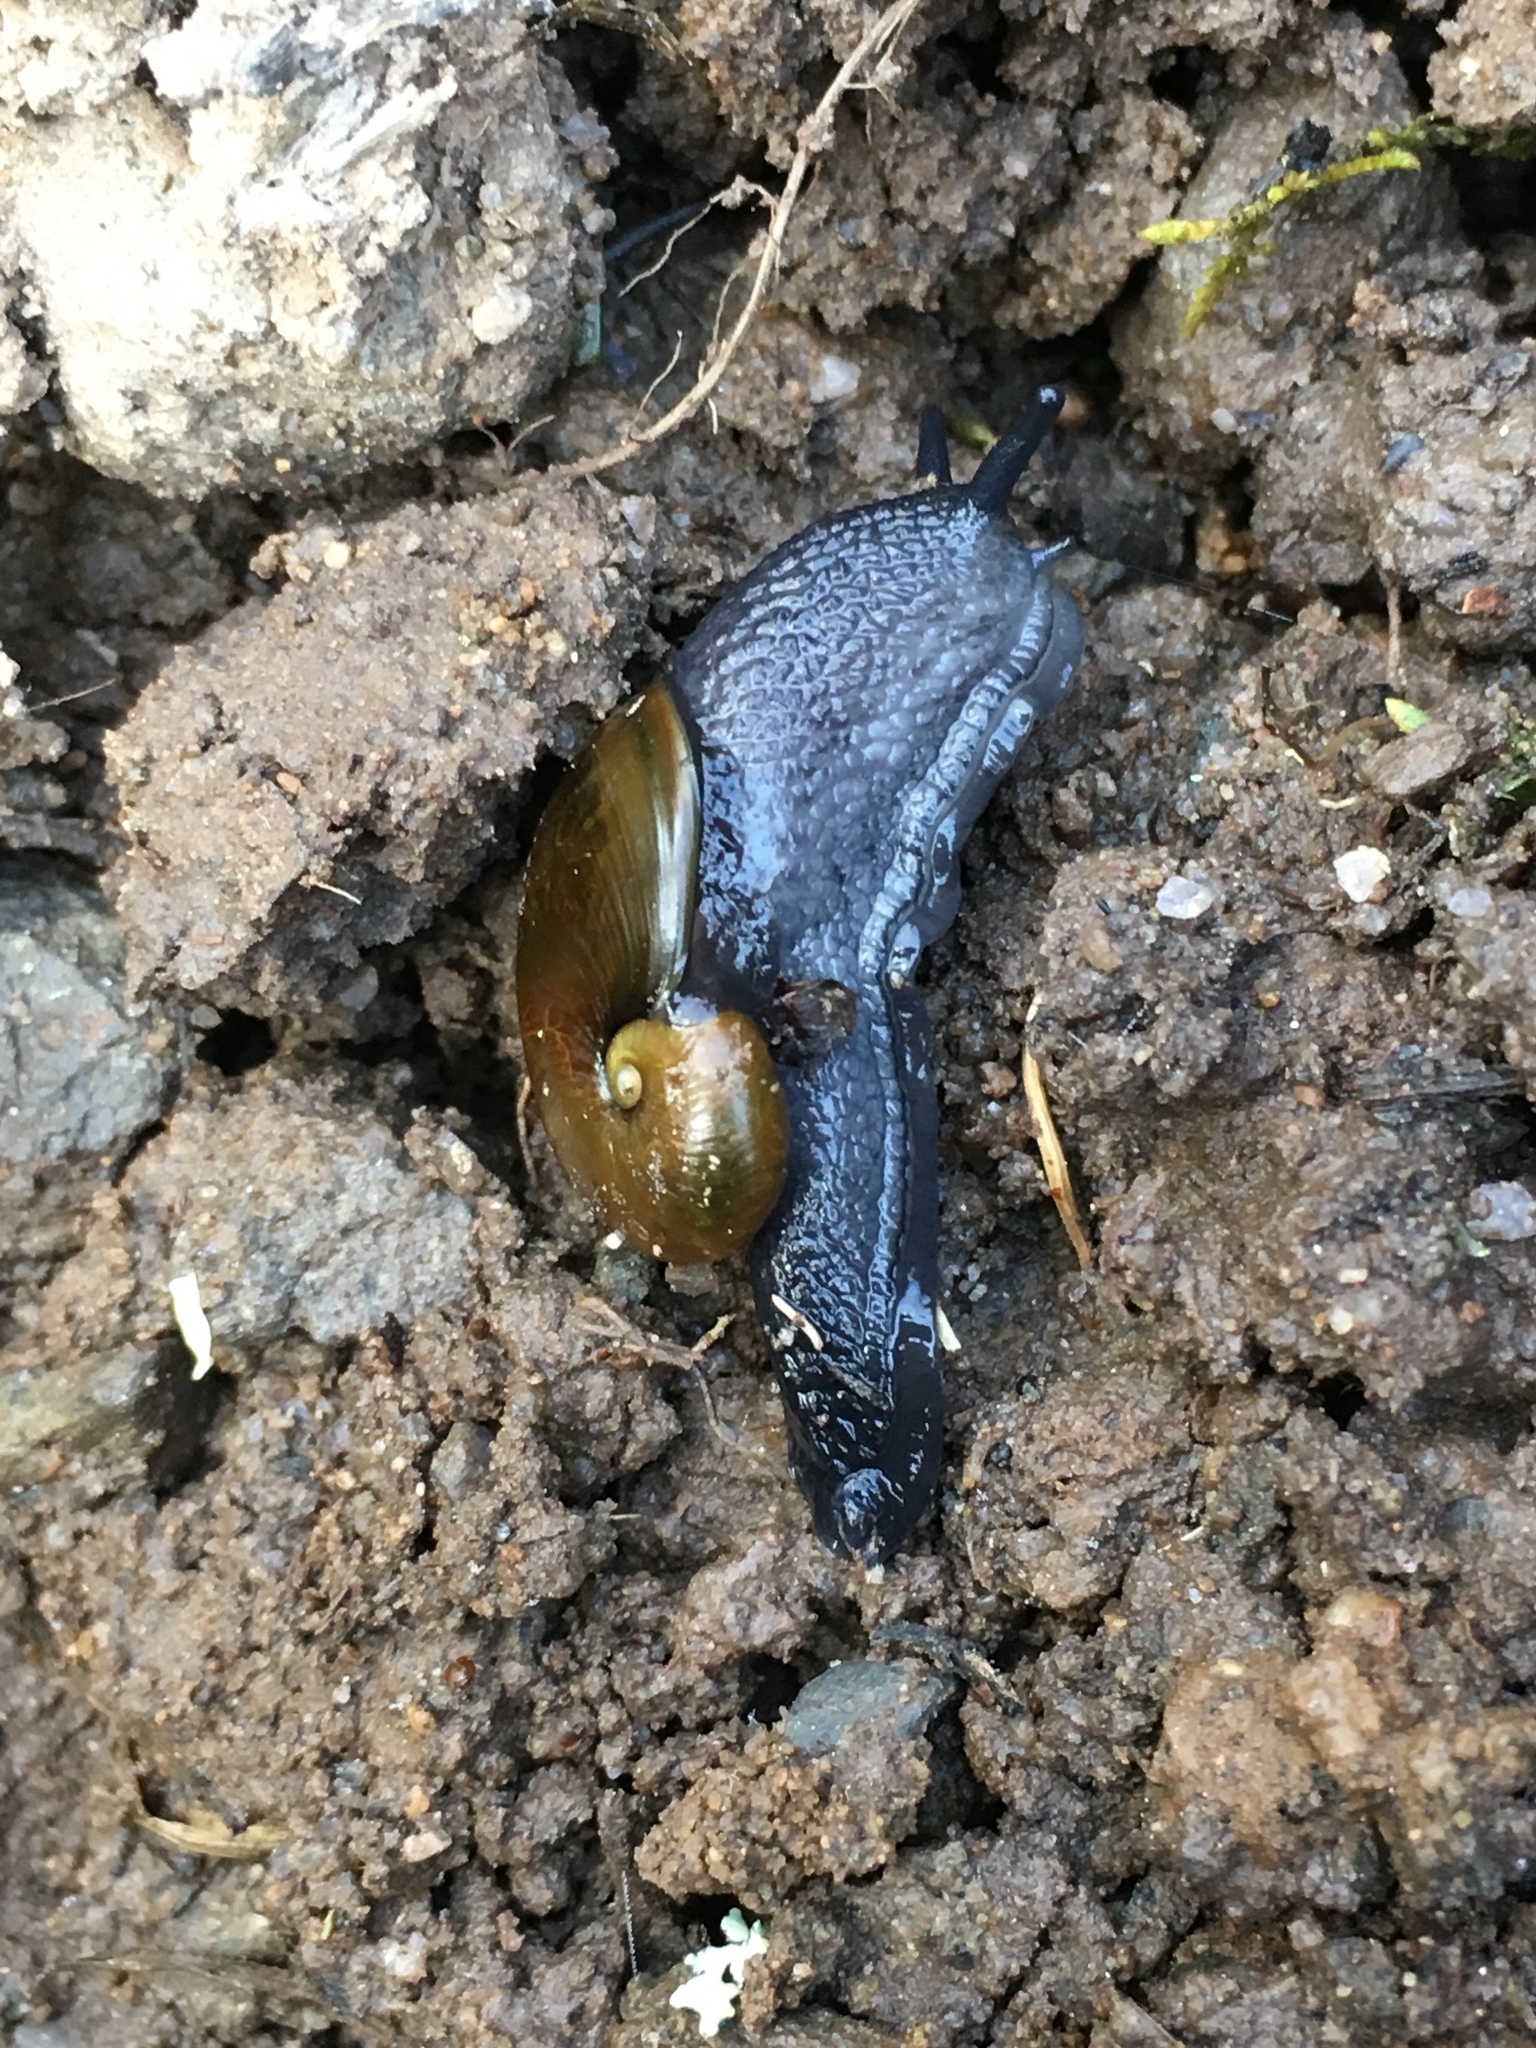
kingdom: Animalia
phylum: Mollusca
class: Gastropoda
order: Stylommatophora
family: Gastrodontidae
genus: Vitrinizonites
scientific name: Vitrinizonites latissimus
